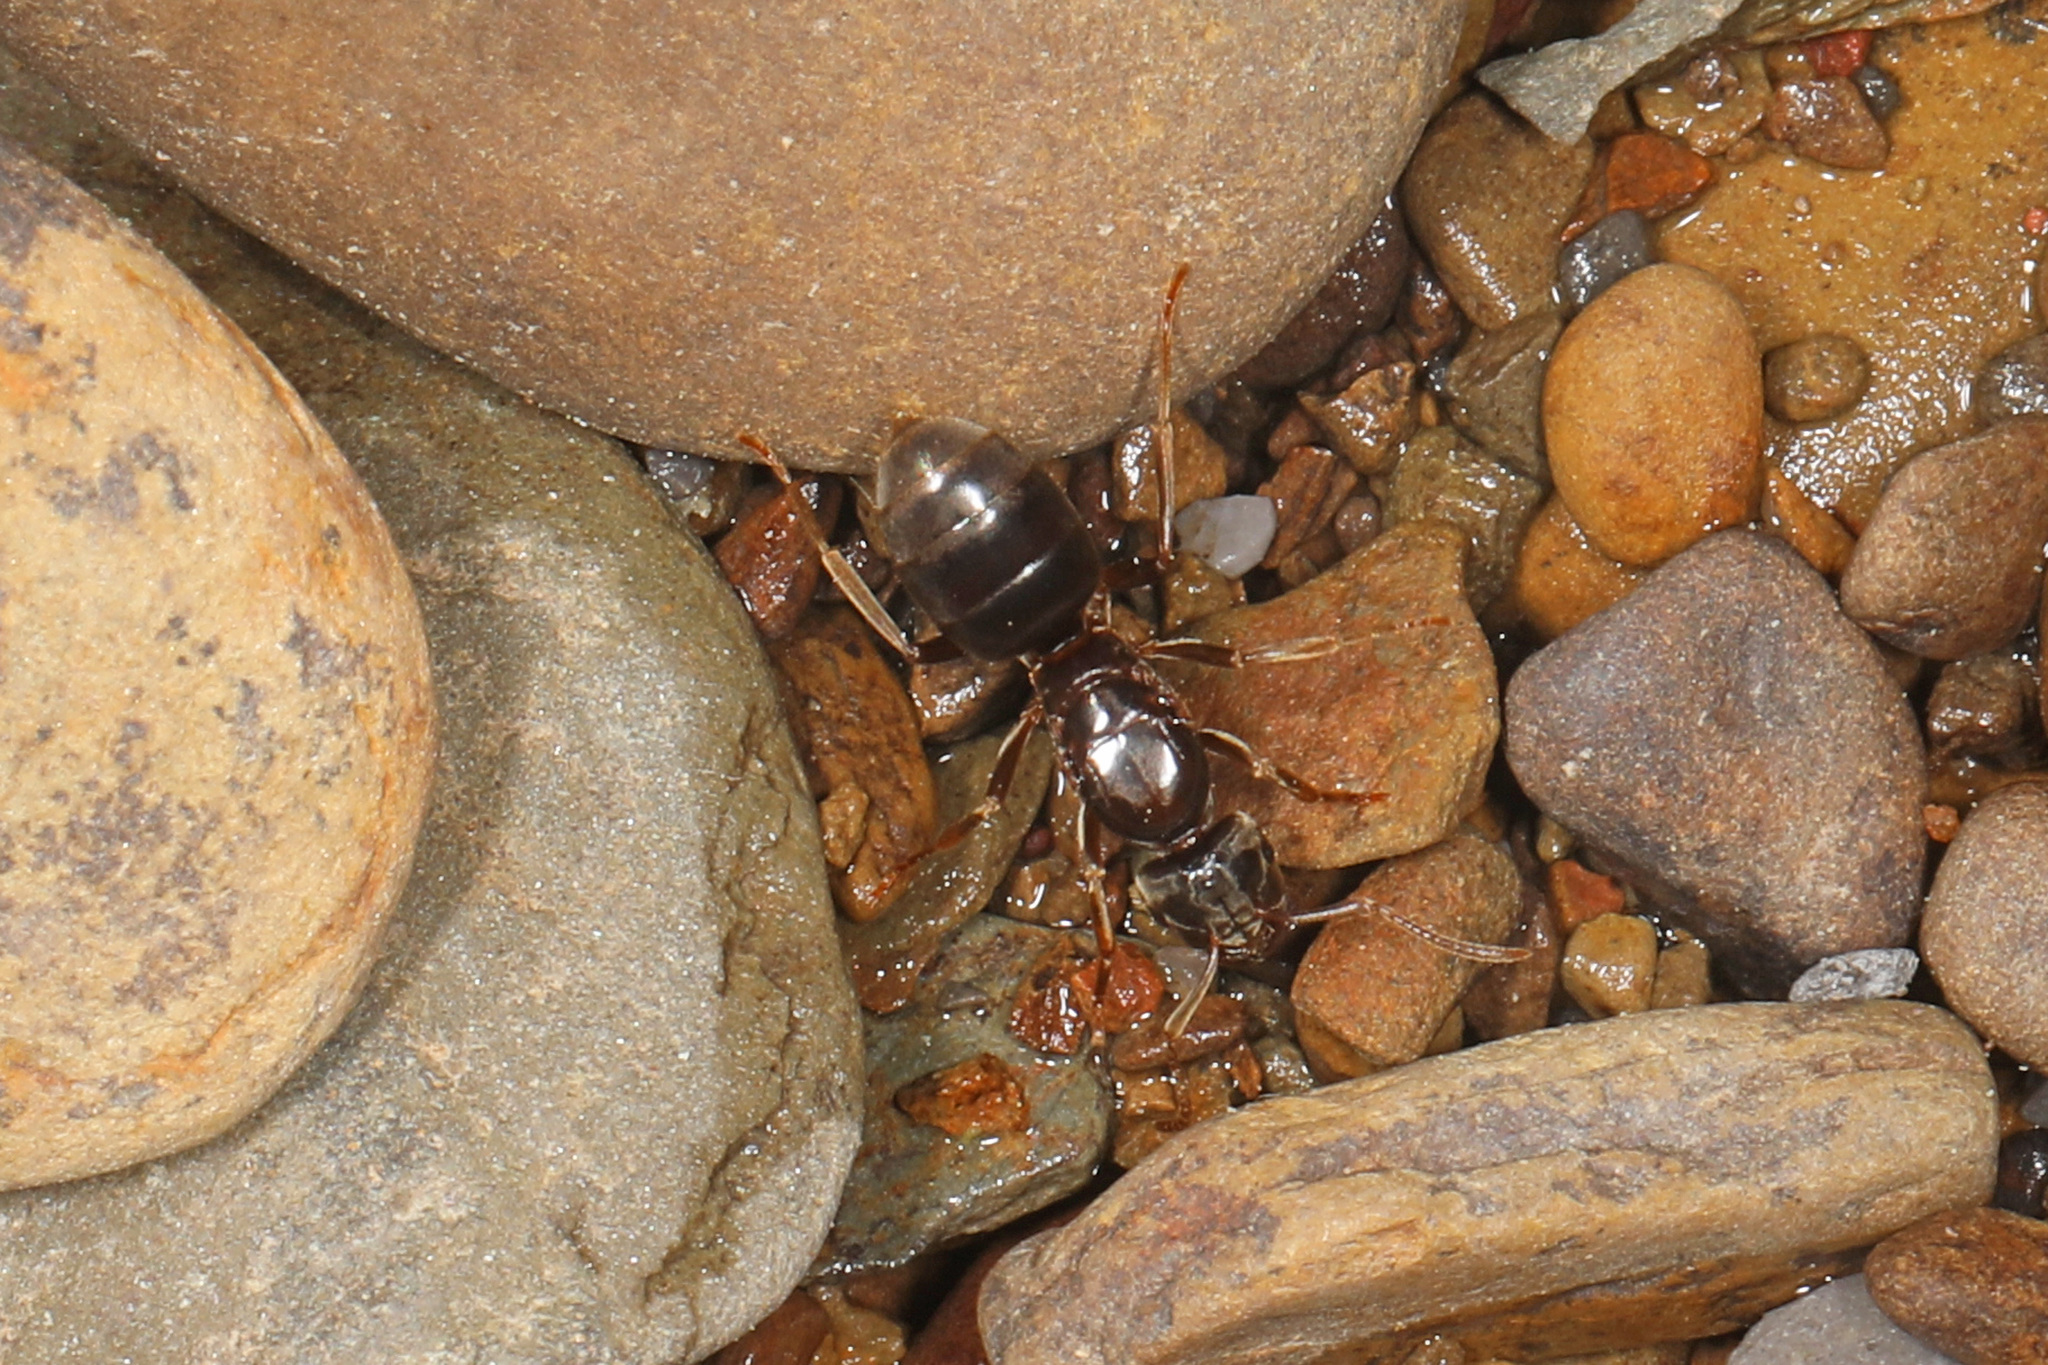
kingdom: Animalia
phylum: Arthropoda
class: Insecta
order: Hymenoptera
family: Formicidae
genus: Lasius
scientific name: Lasius aphidicola
